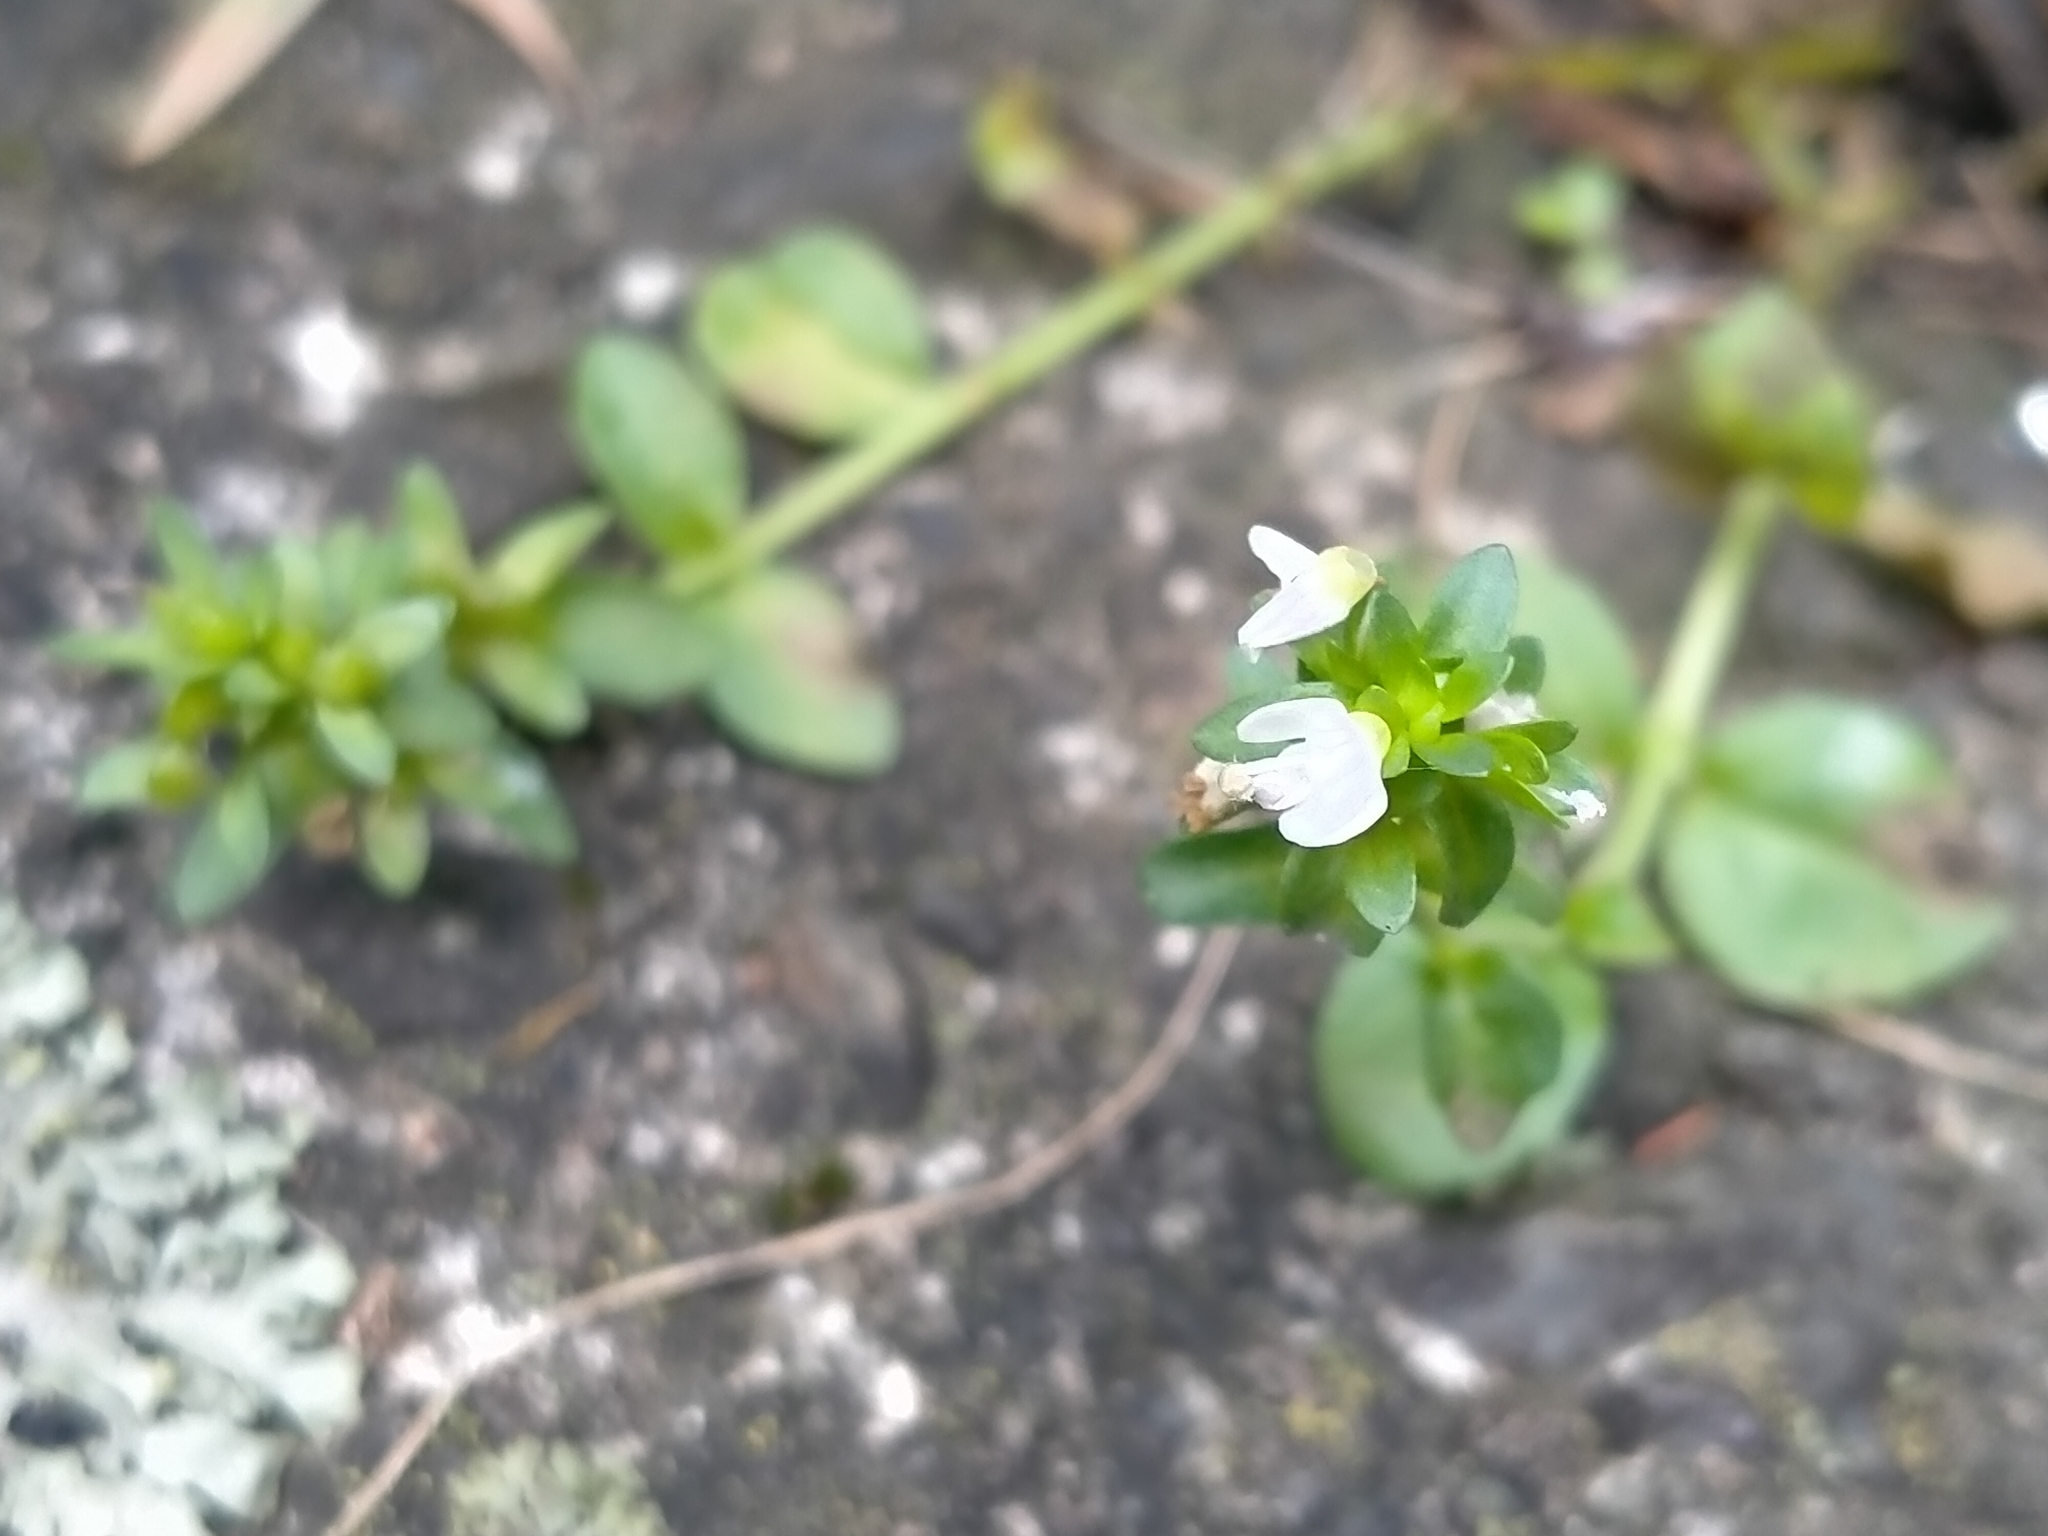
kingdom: Plantae
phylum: Tracheophyta
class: Magnoliopsida
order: Lamiales
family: Plantaginaceae
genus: Veronica
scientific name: Veronica serpyllifolia
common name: Thyme-leaved speedwell
